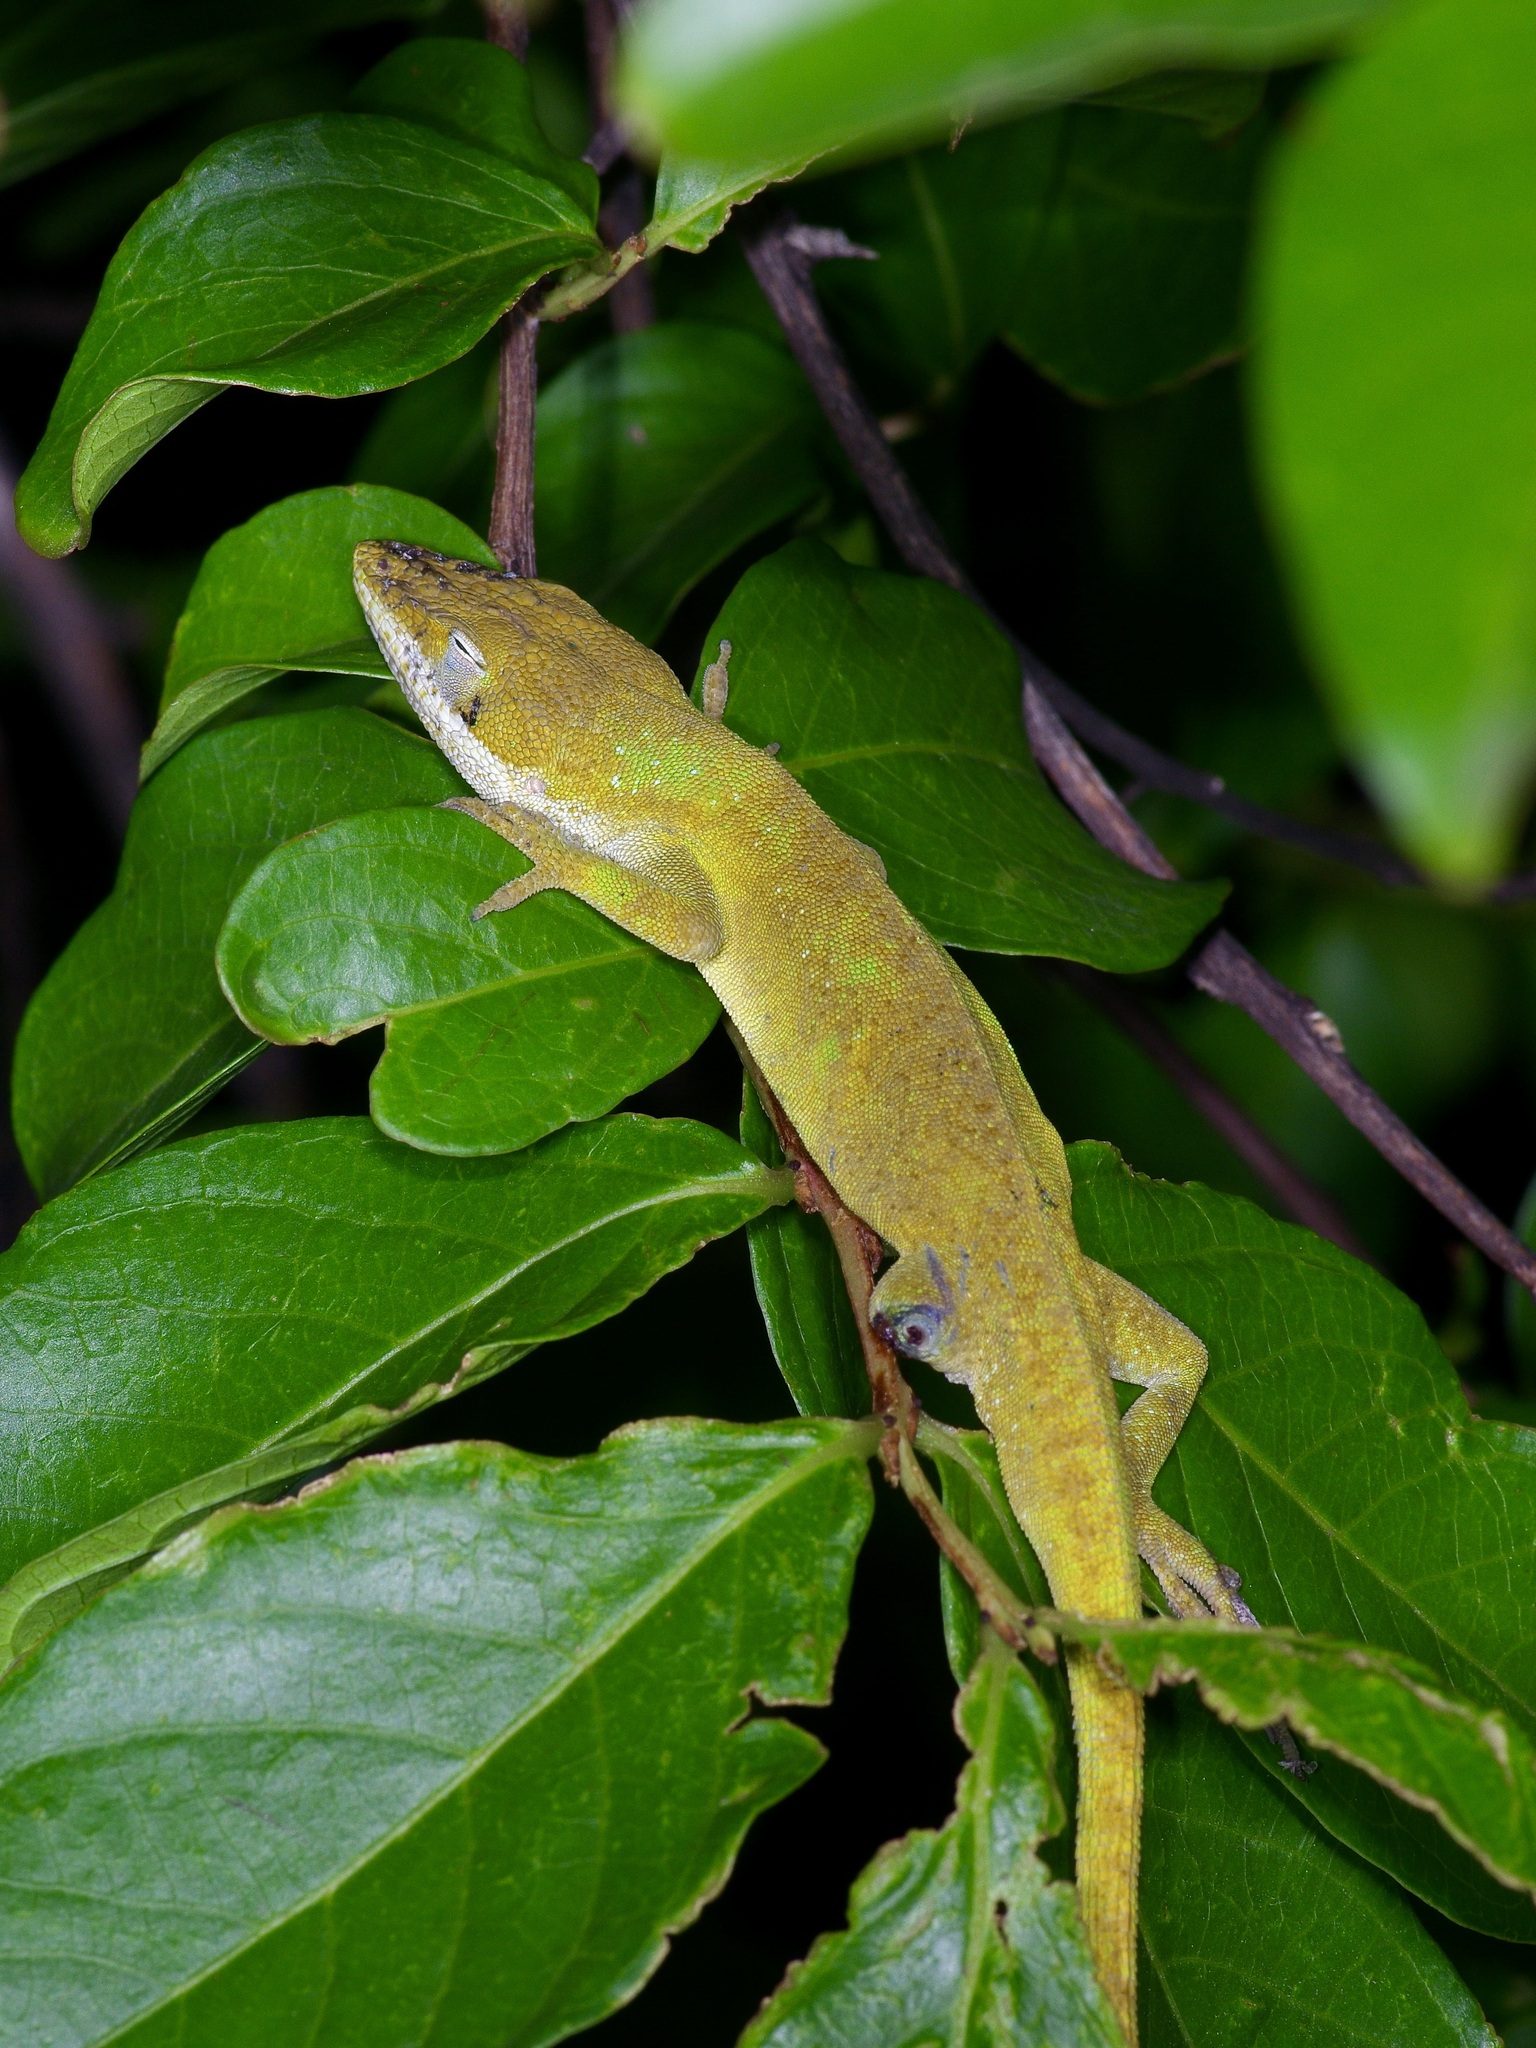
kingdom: Animalia
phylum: Chordata
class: Squamata
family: Dactyloidae
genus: Anolis
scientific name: Anolis carolinensis
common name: Green anole
